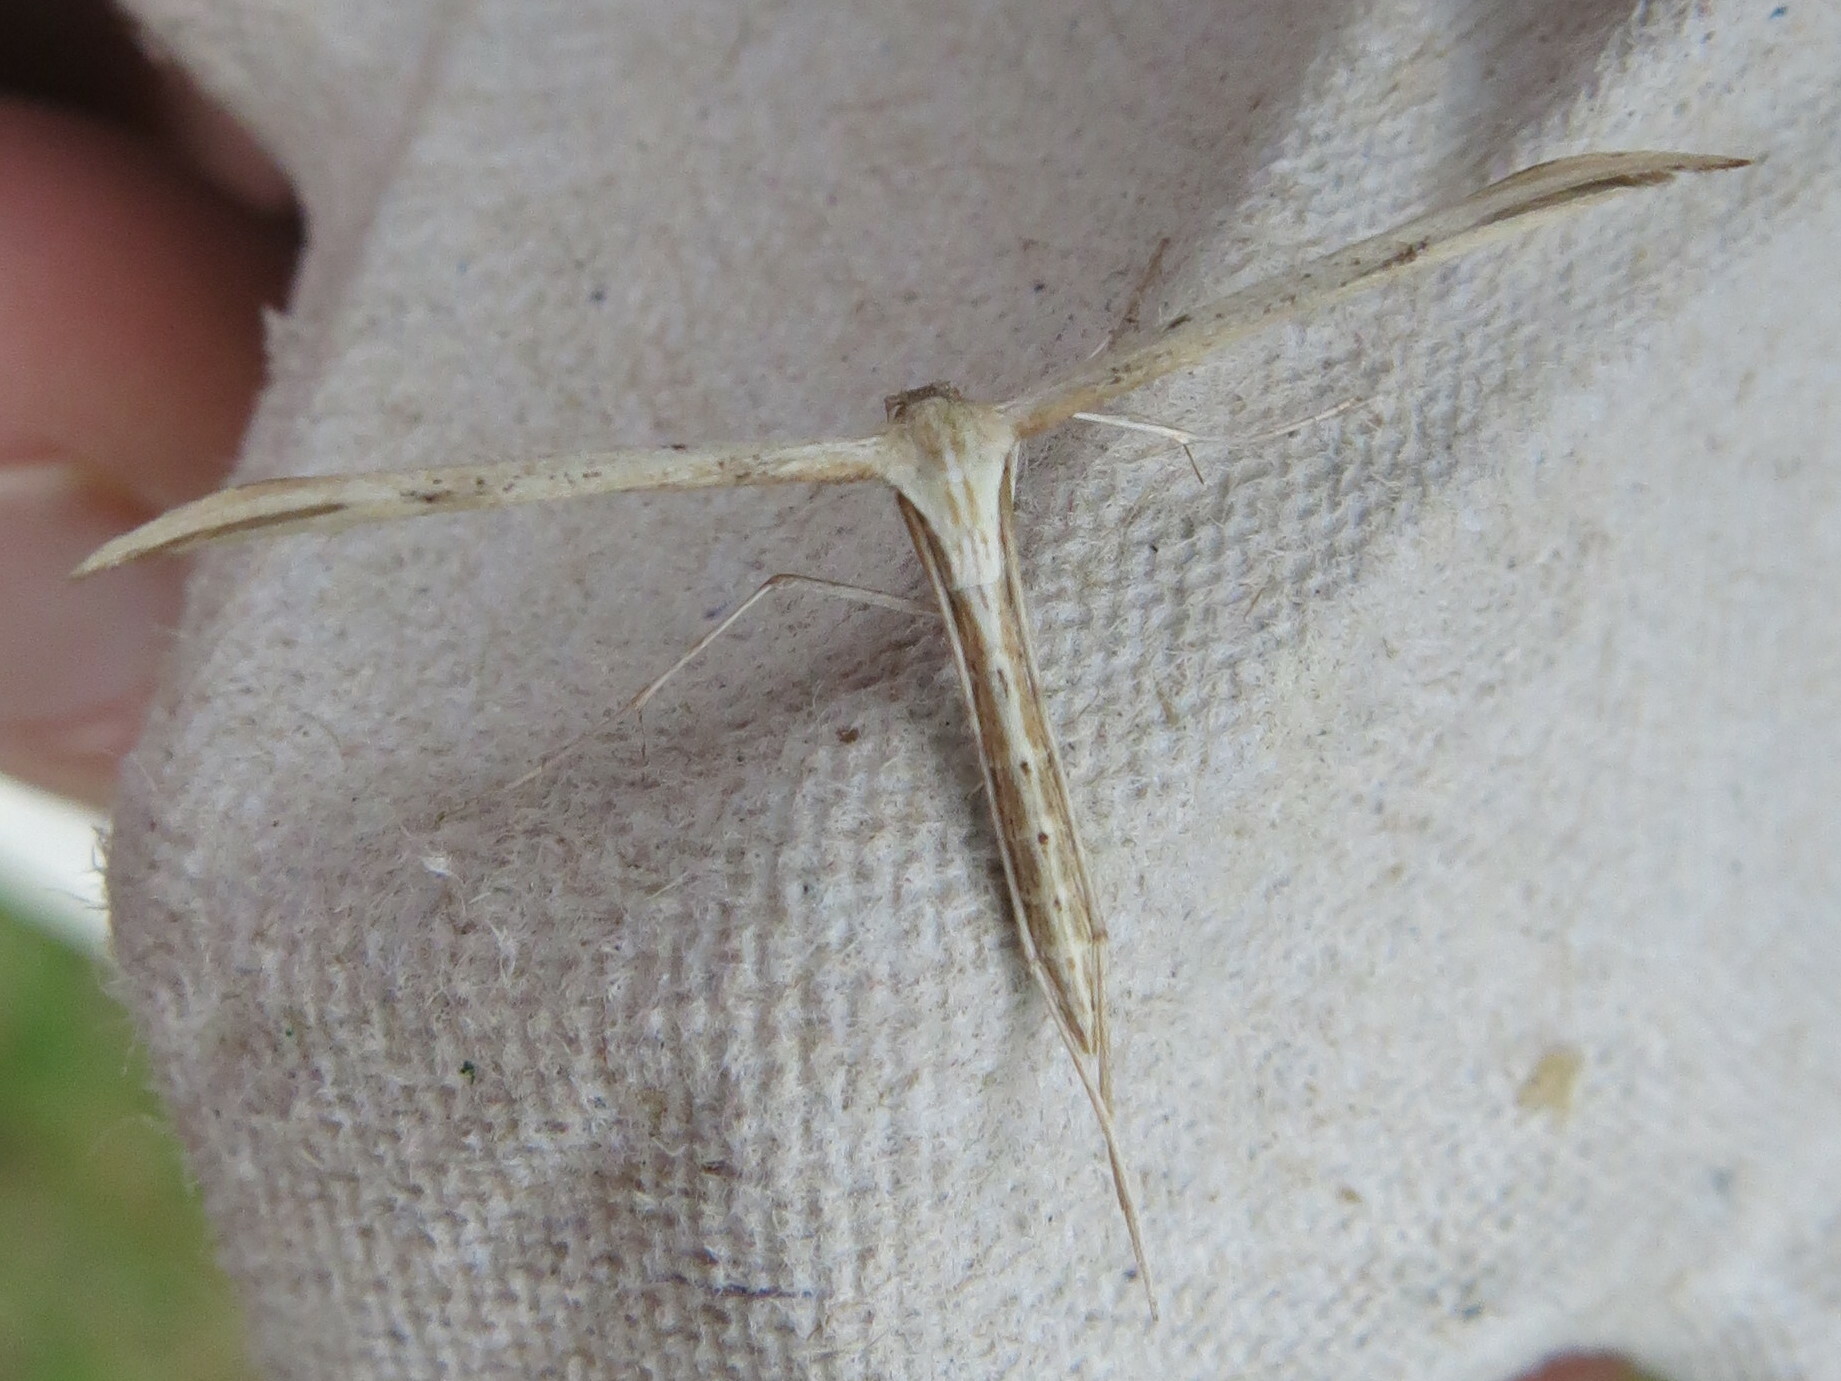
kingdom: Animalia
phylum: Arthropoda
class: Insecta
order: Lepidoptera
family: Pterophoridae
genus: Emmelina
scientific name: Emmelina monodactyla
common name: Common plume
